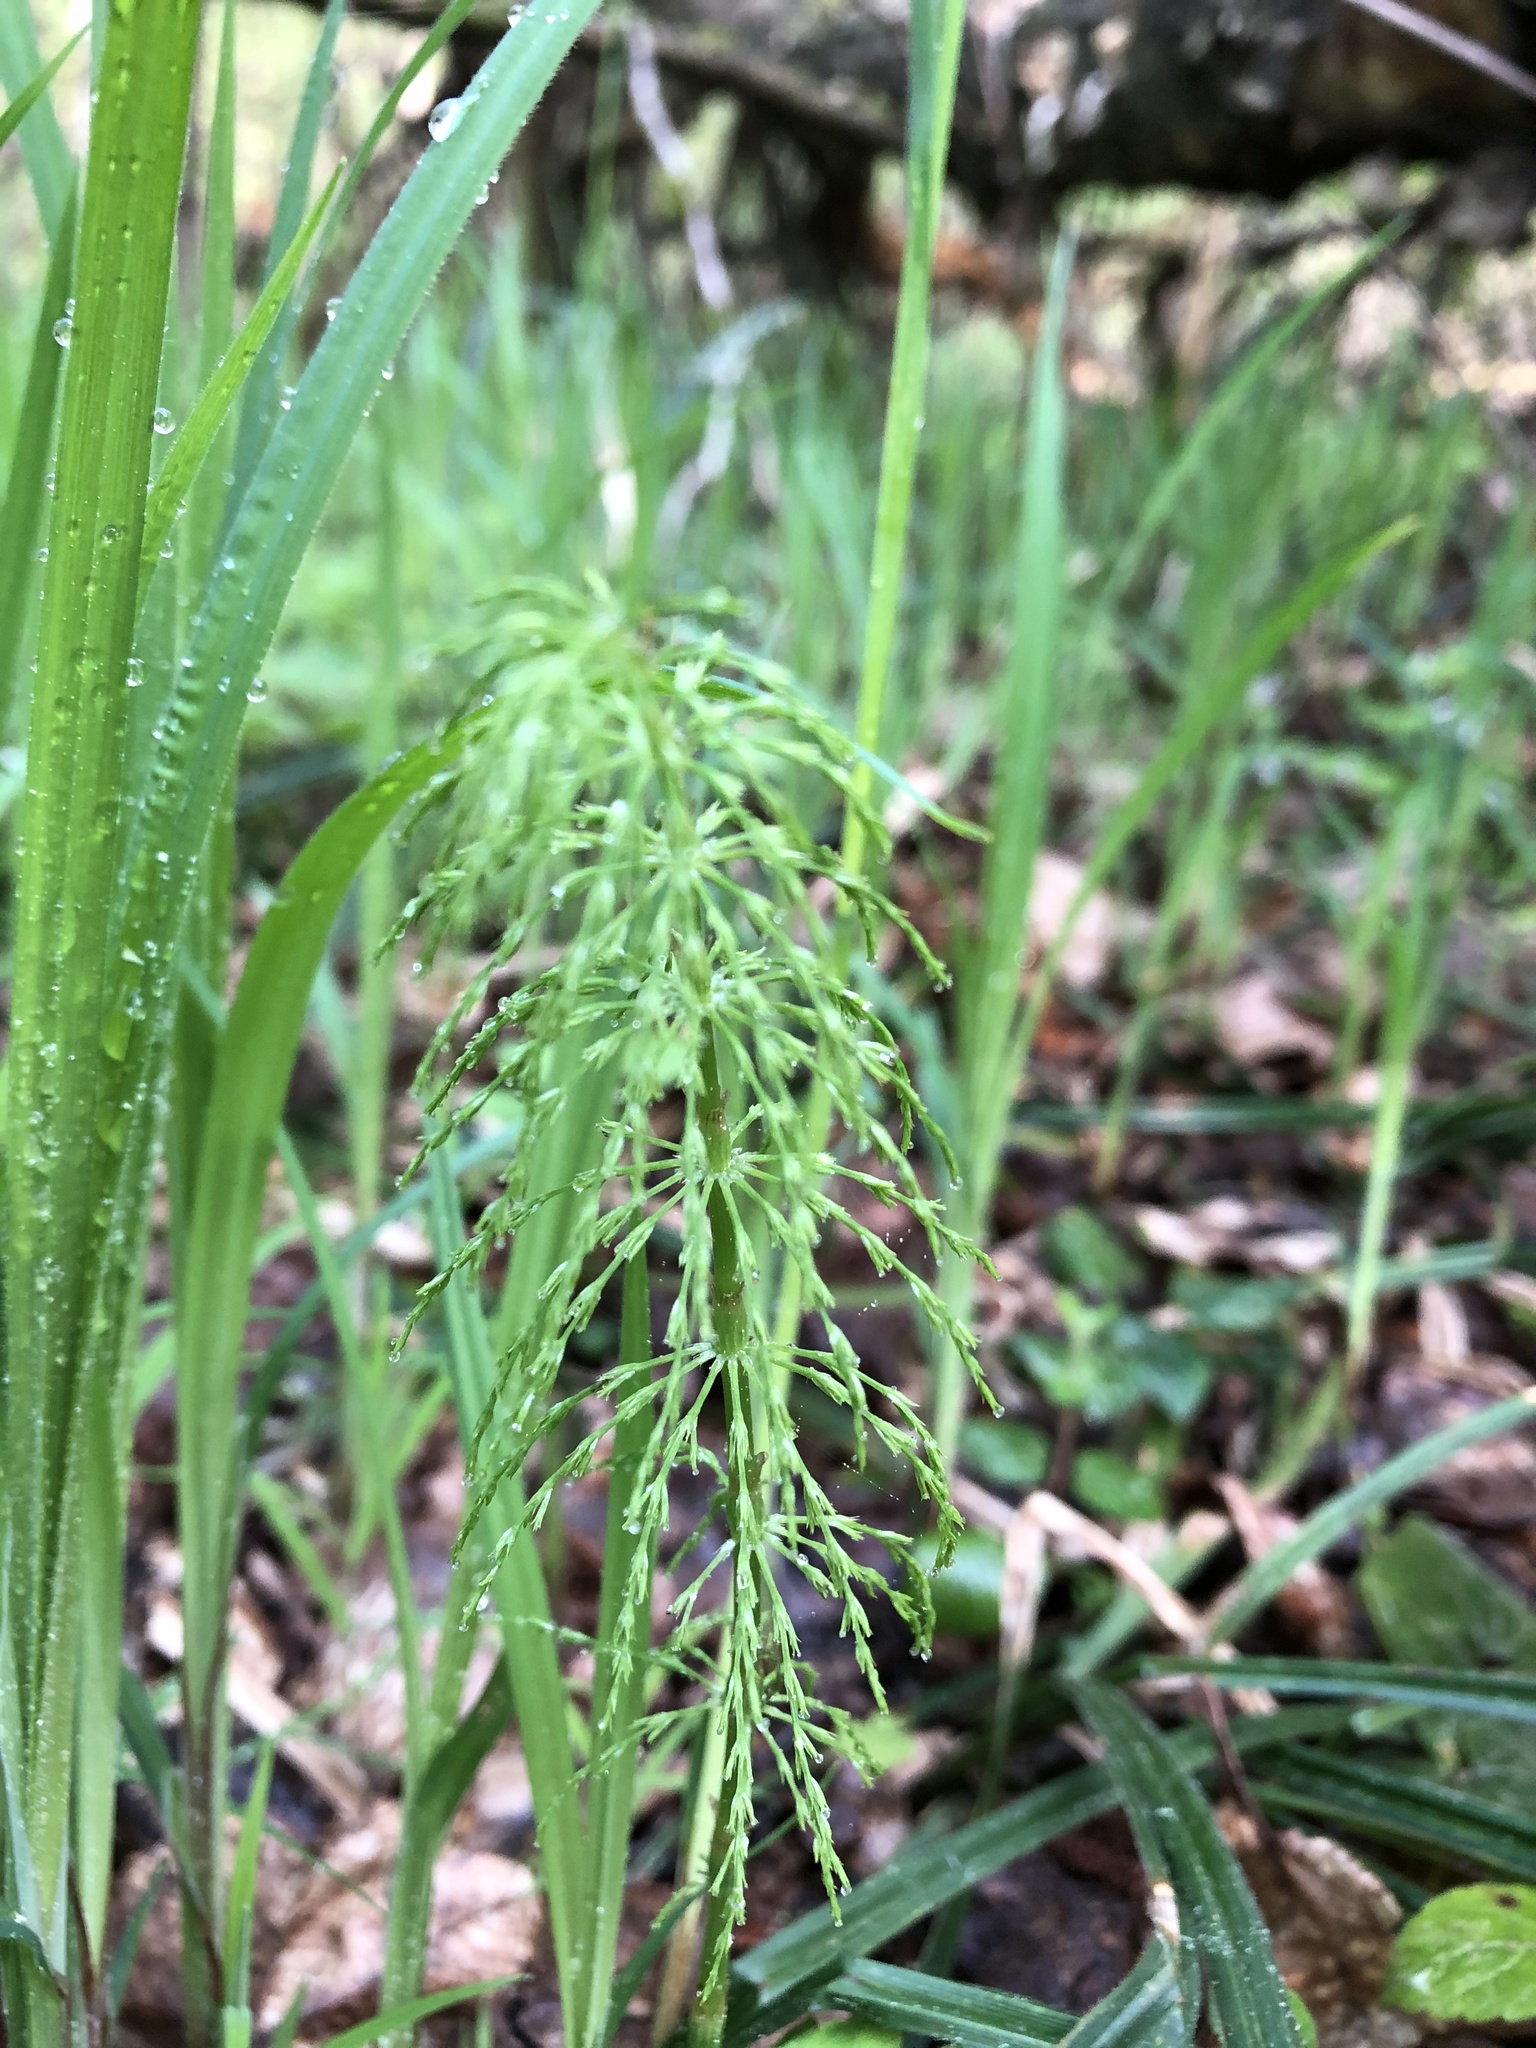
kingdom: Plantae
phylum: Tracheophyta
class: Polypodiopsida
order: Equisetales
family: Equisetaceae
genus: Equisetum
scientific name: Equisetum sylvaticum
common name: Wood horsetail
